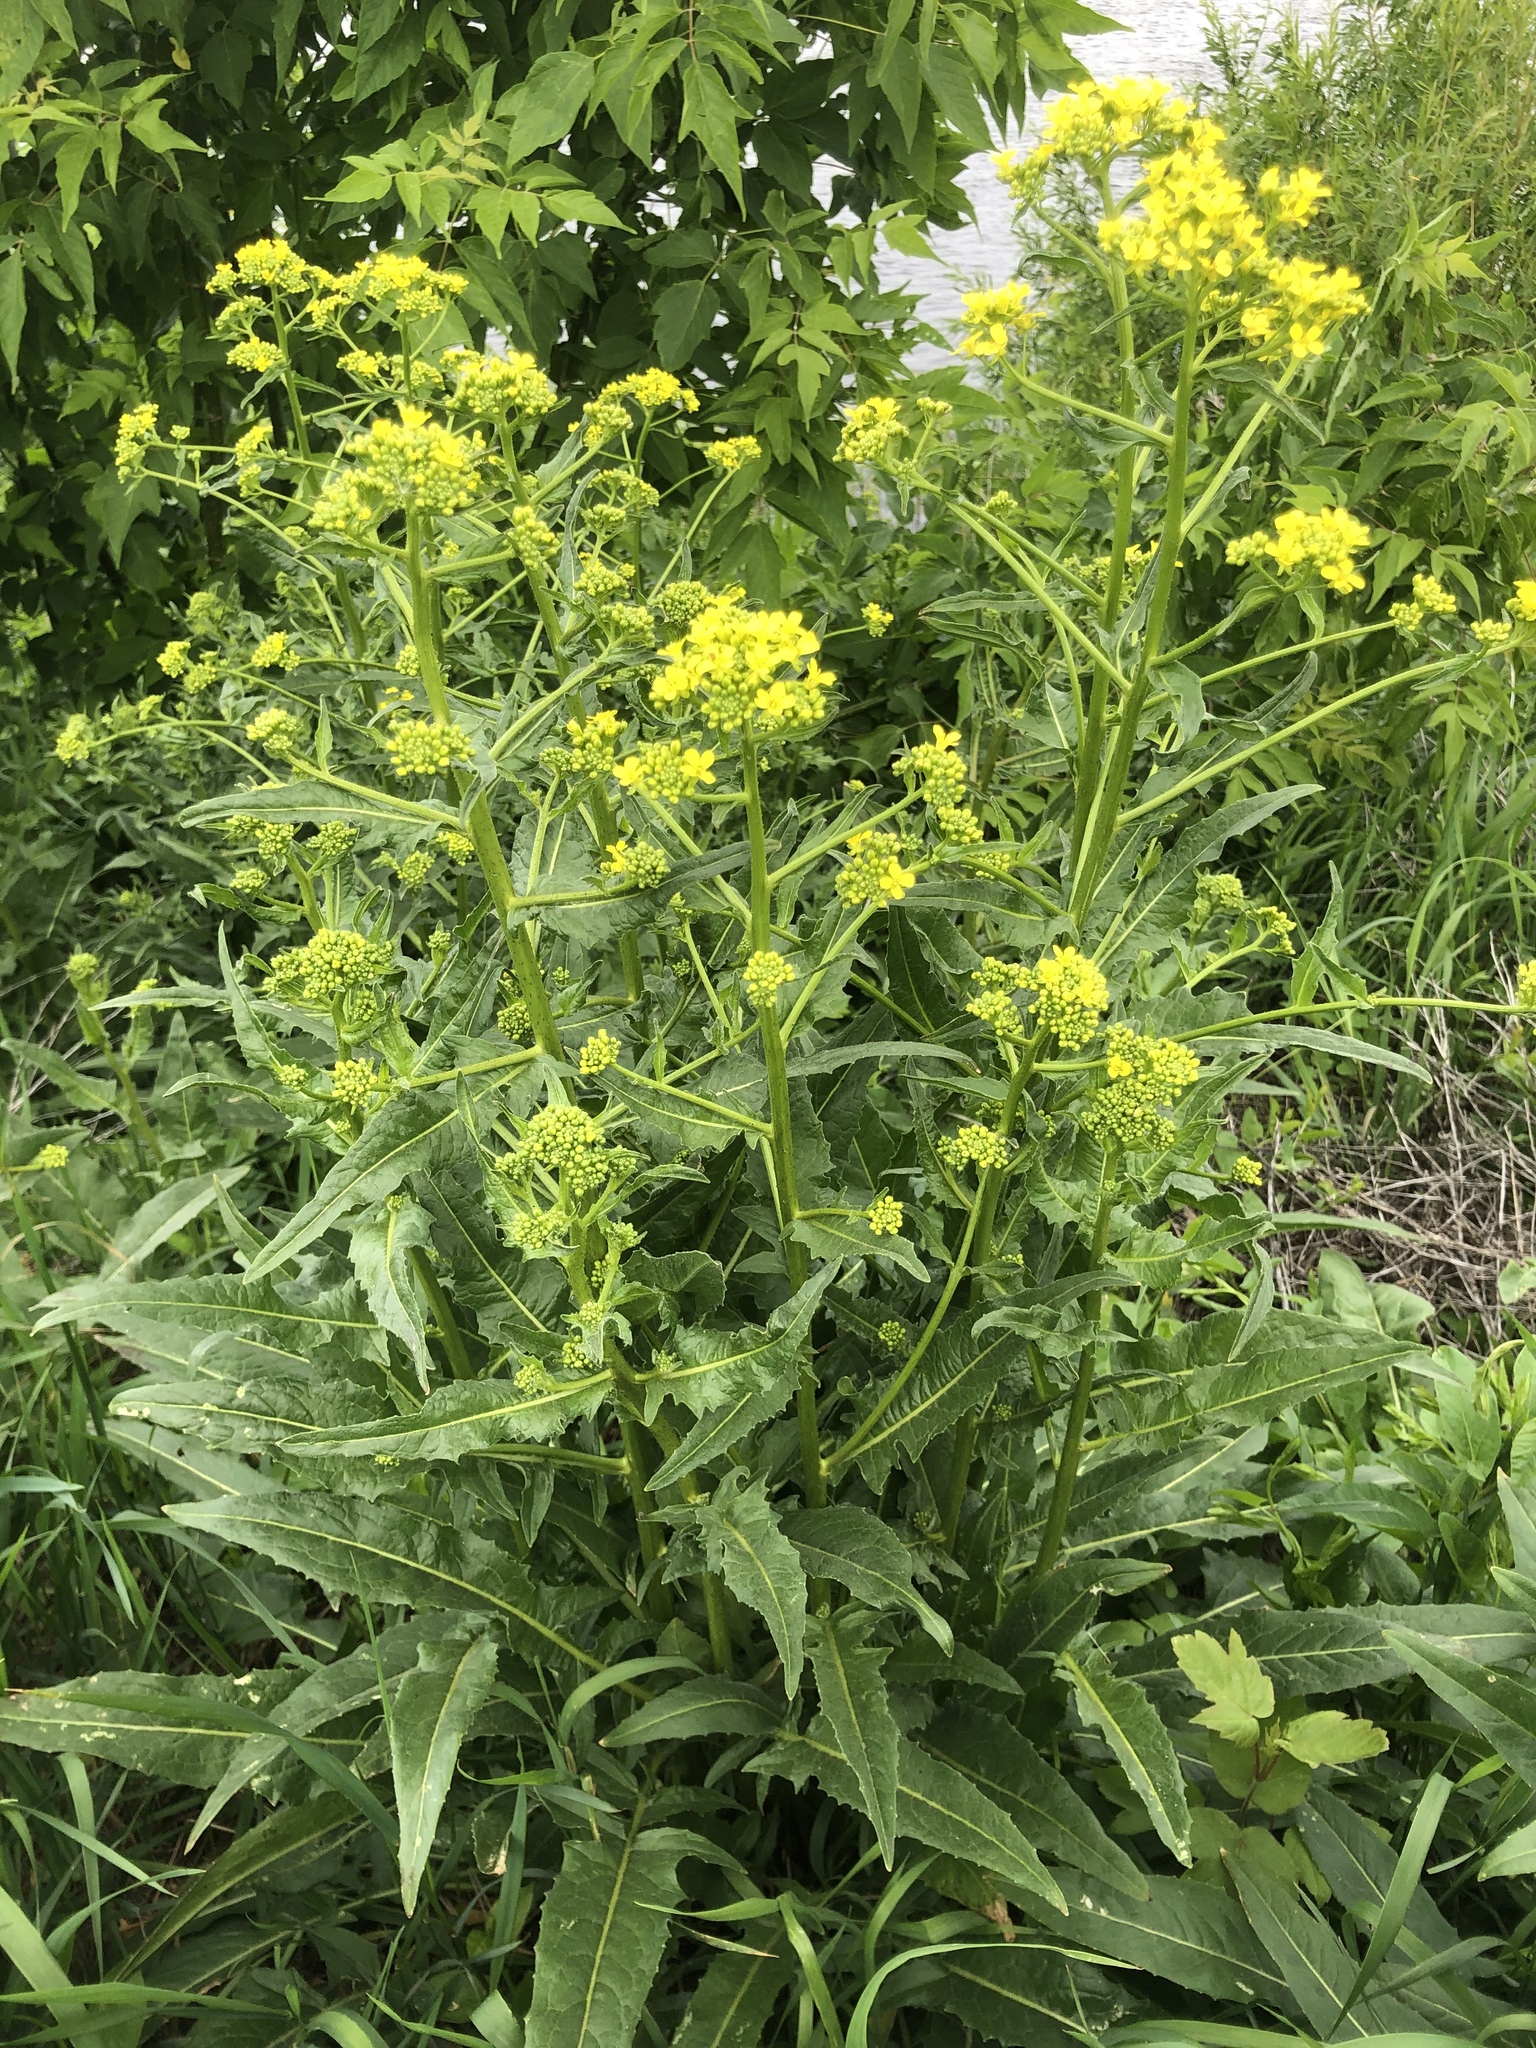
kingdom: Plantae
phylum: Tracheophyta
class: Magnoliopsida
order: Brassicales
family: Brassicaceae
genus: Bunias
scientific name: Bunias orientalis
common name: Warty-cabbage
